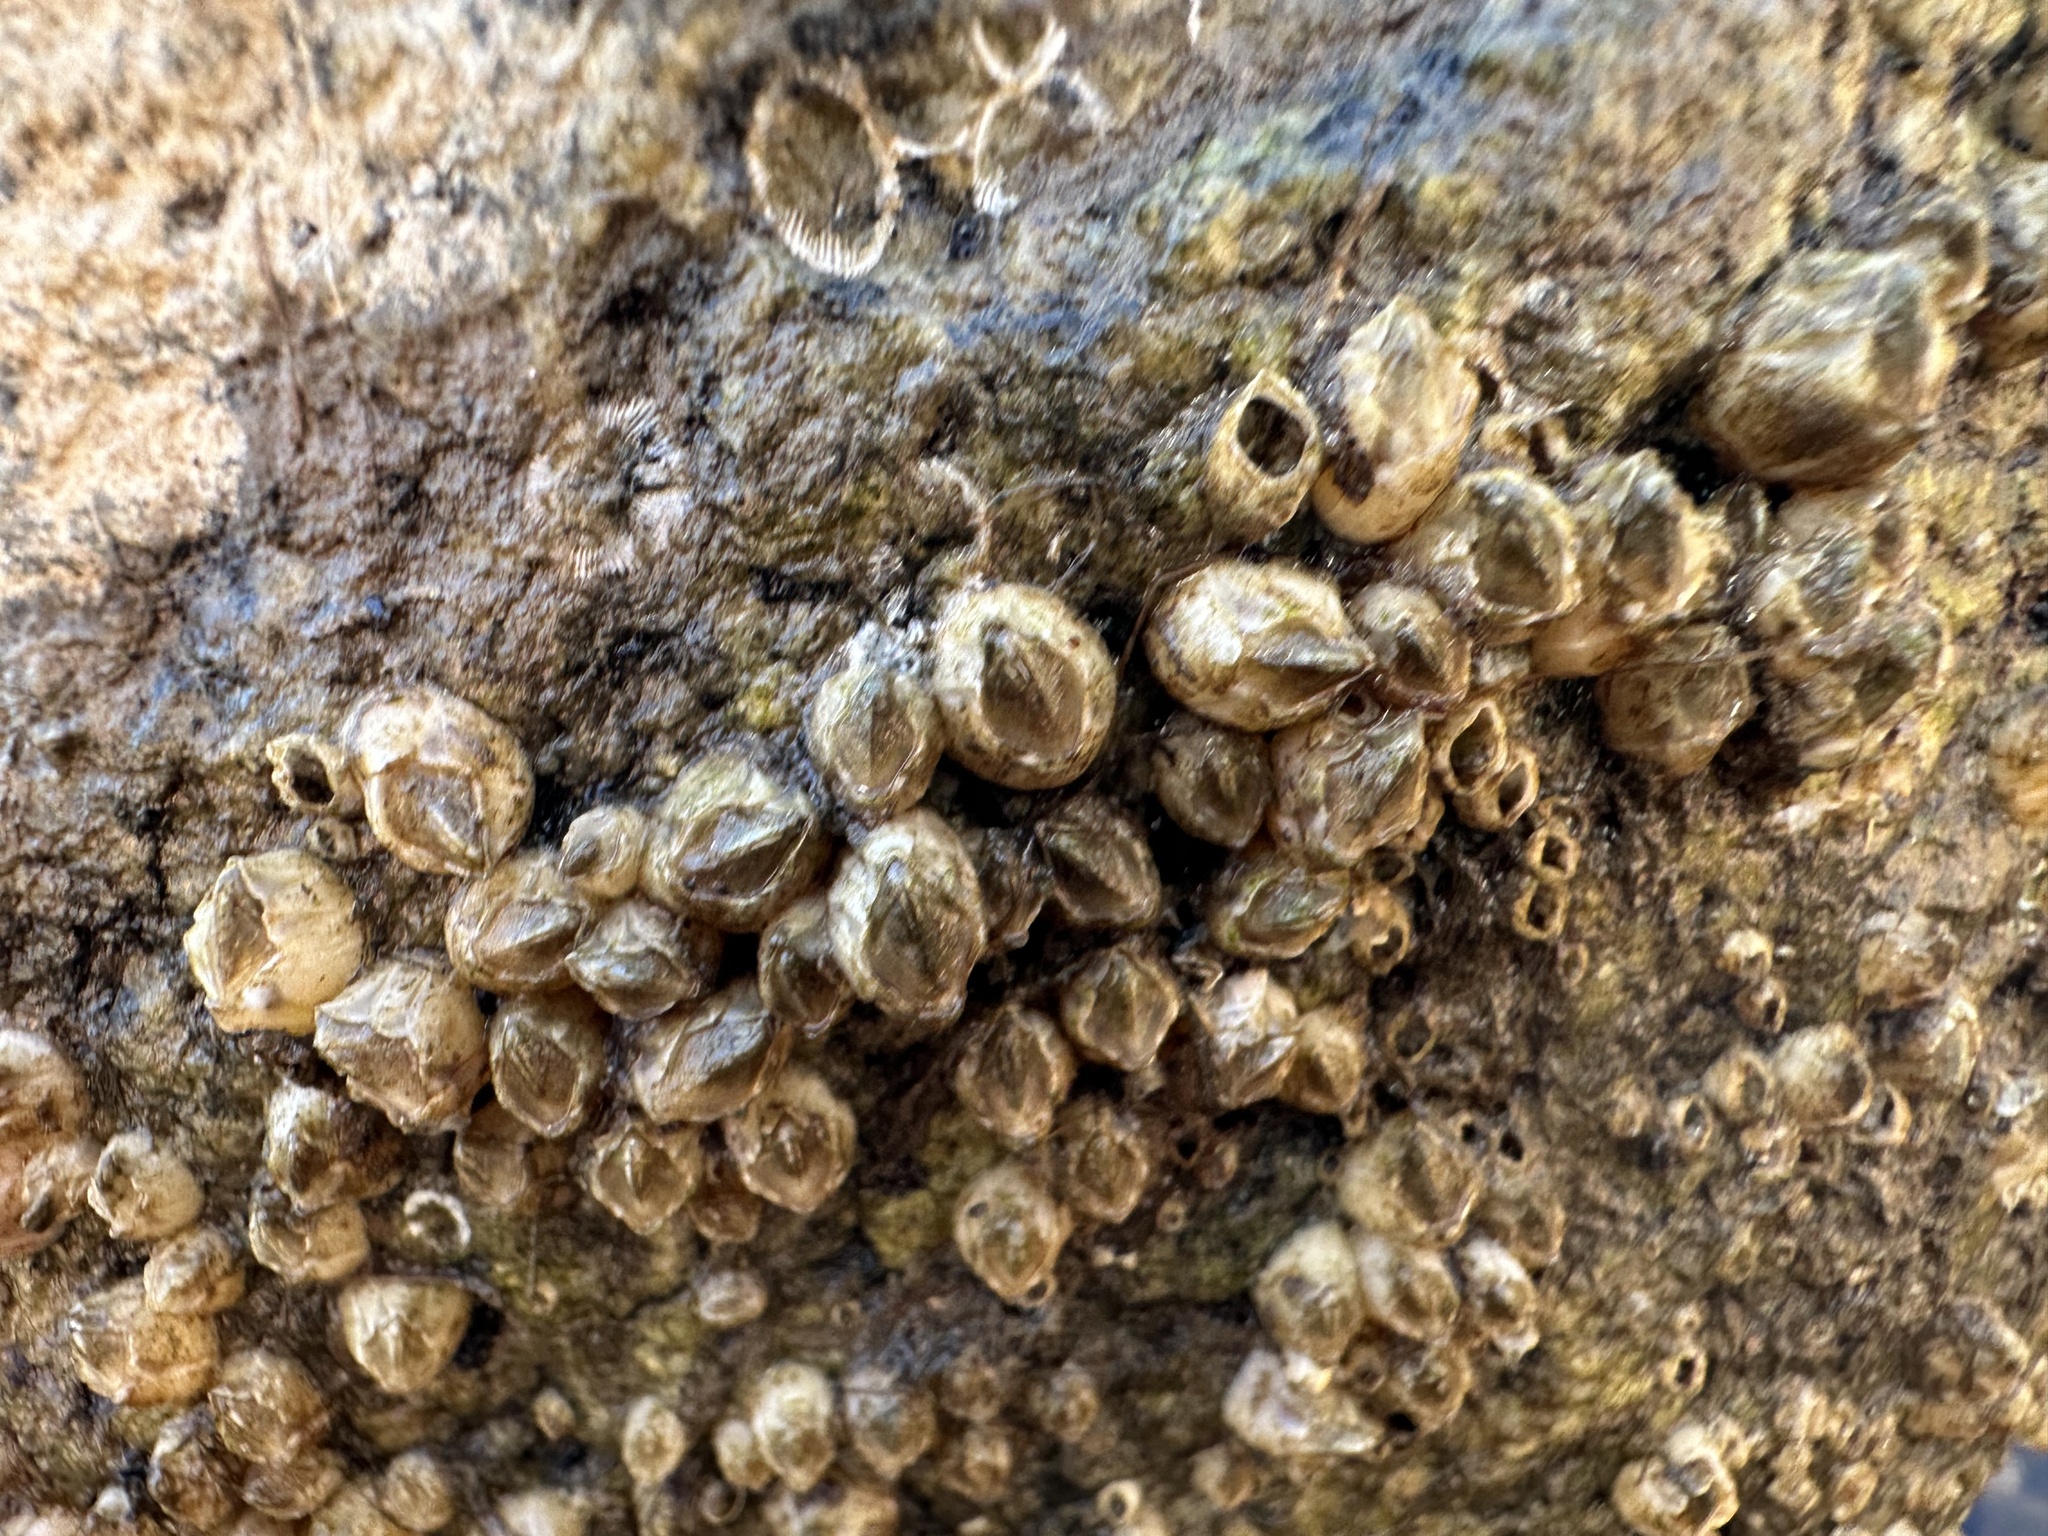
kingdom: Animalia
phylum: Arthropoda
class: Maxillopoda
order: Sessilia
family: Balanidae
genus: Amphibalanus
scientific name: Amphibalanus improvisus
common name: Bay barnacle
